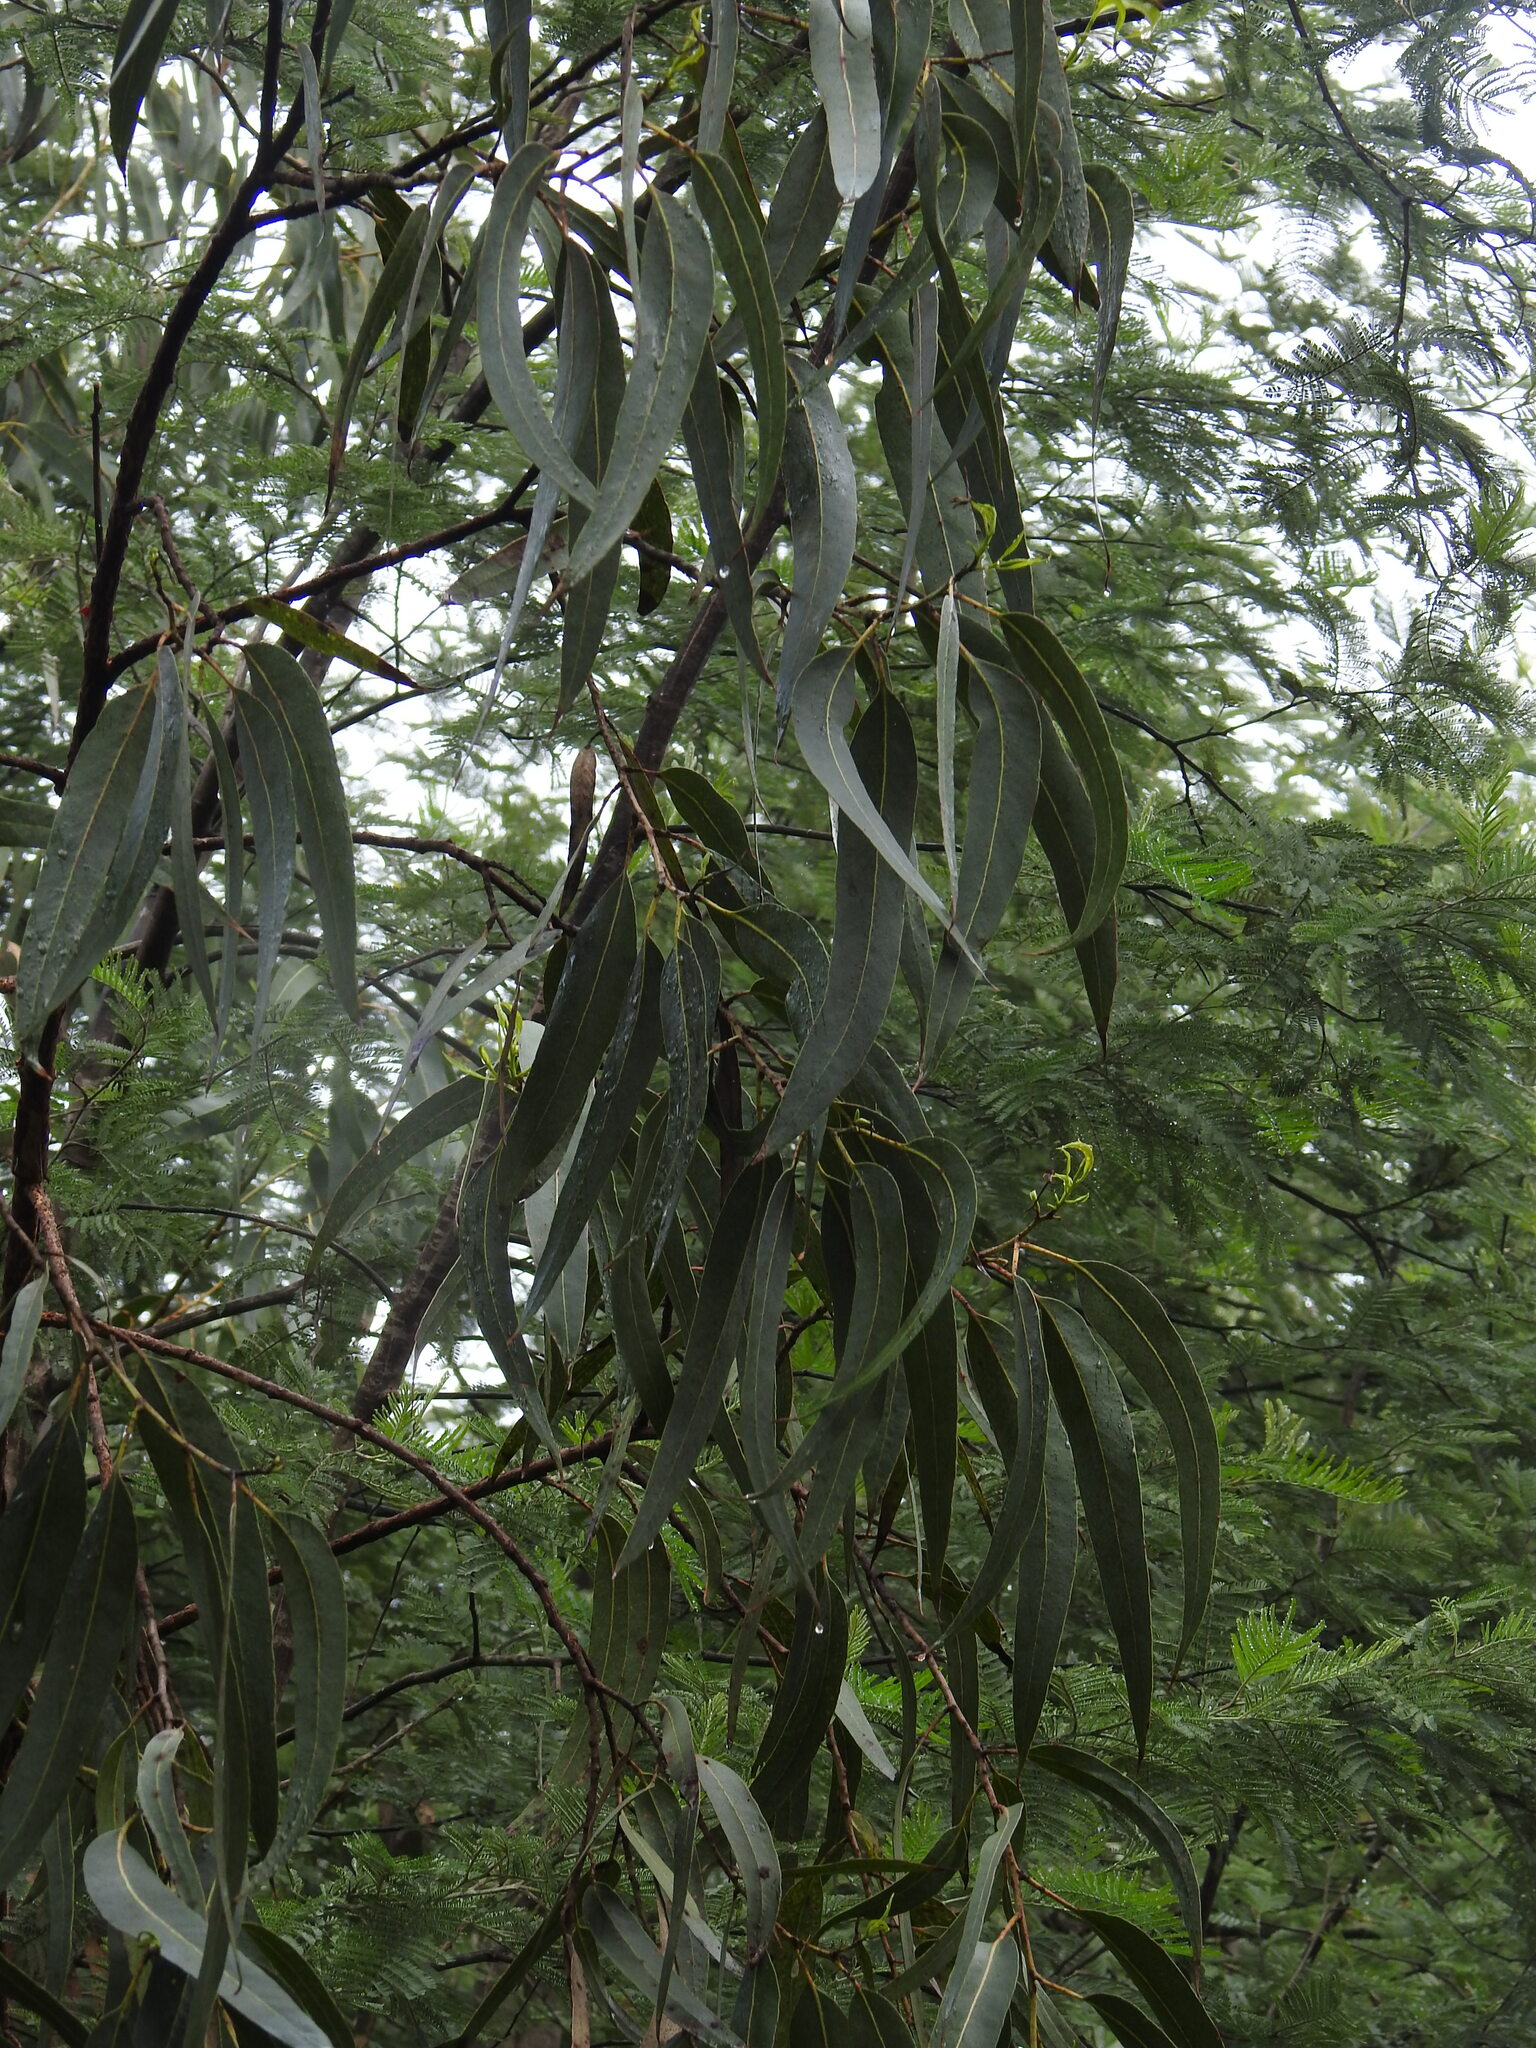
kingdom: Plantae
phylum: Tracheophyta
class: Magnoliopsida
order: Myrtales
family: Myrtaceae
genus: Eucalyptus
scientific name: Eucalyptus globulus
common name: Southern blue-gum
